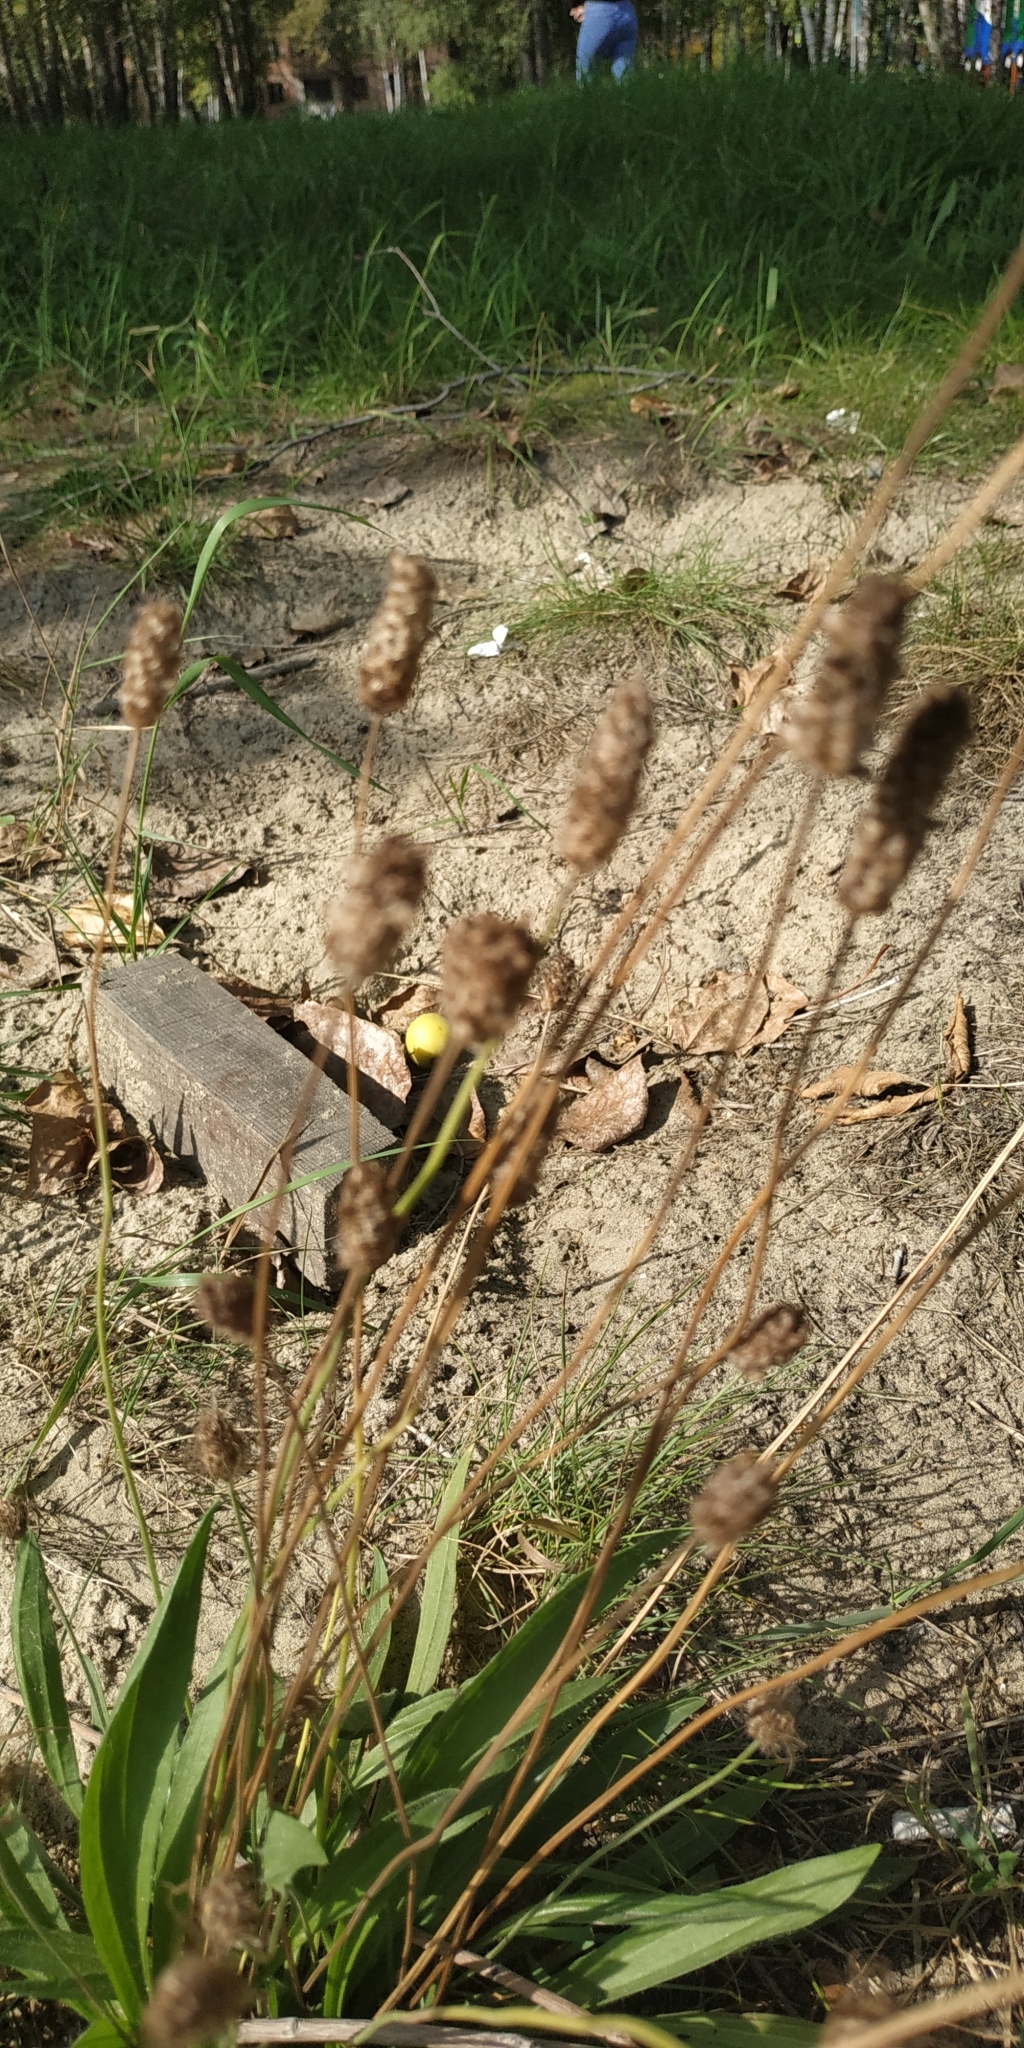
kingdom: Plantae
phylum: Tracheophyta
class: Magnoliopsida
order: Lamiales
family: Plantaginaceae
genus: Plantago
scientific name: Plantago lanceolata
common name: Ribwort plantain
